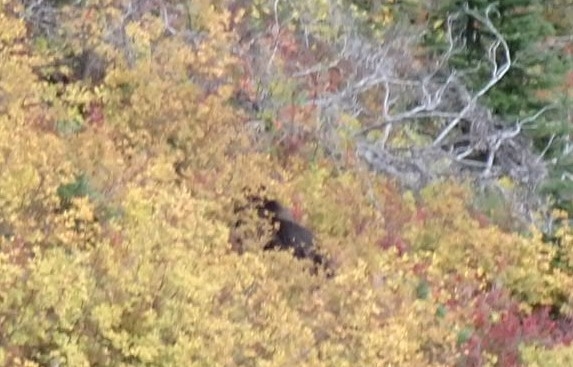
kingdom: Animalia
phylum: Chordata
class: Mammalia
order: Carnivora
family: Ursidae
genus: Ursus
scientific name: Ursus arctos
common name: Brown bear
